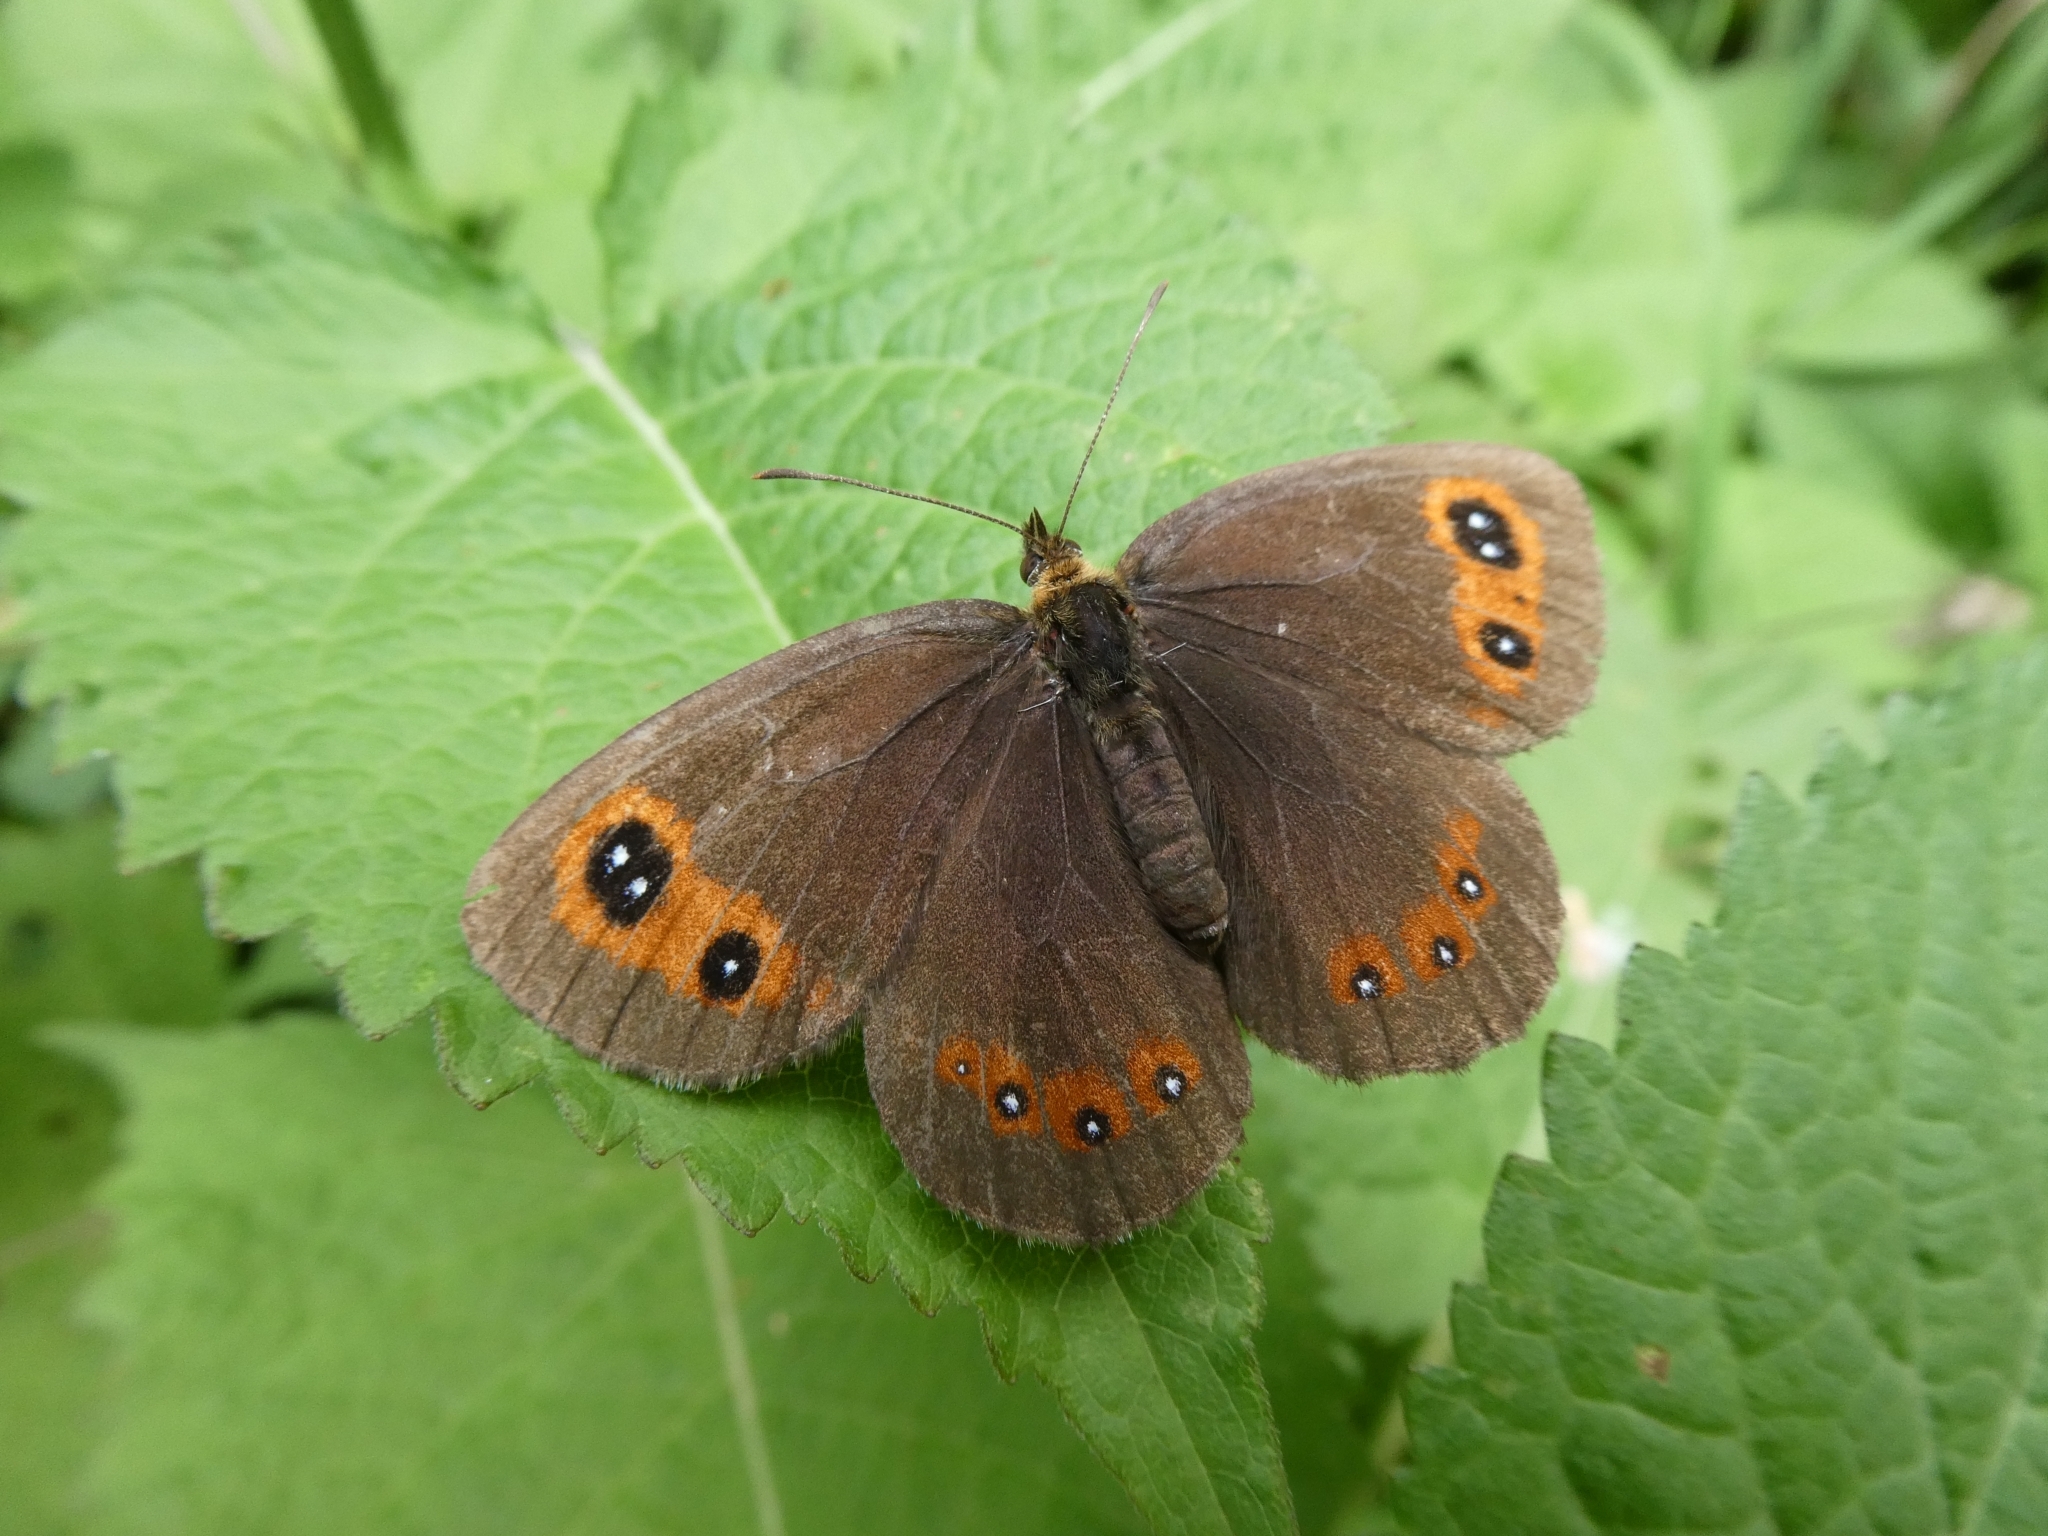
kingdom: Animalia
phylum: Arthropoda
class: Insecta
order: Lepidoptera
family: Nymphalidae
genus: Erebia
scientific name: Erebia aethiops
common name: Scotch argus
